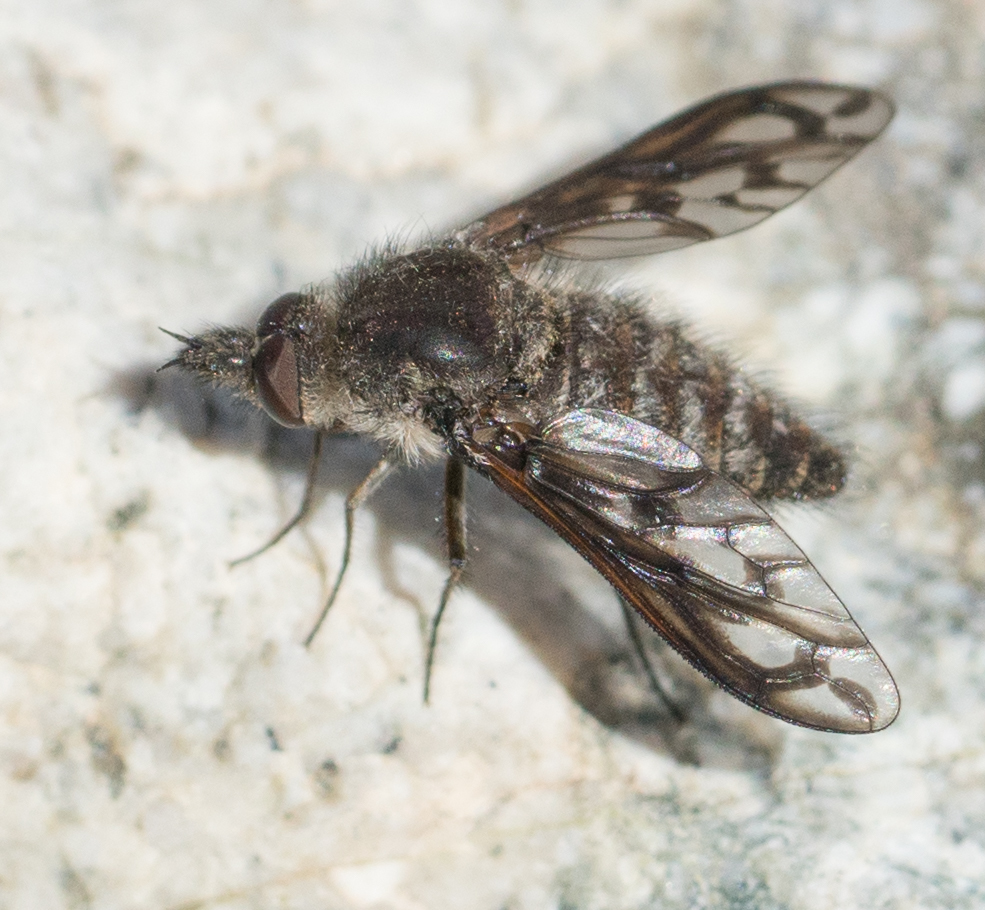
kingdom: Animalia
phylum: Arthropoda
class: Insecta
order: Diptera
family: Bombyliidae
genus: Conophorus
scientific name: Conophorus fenestratus
